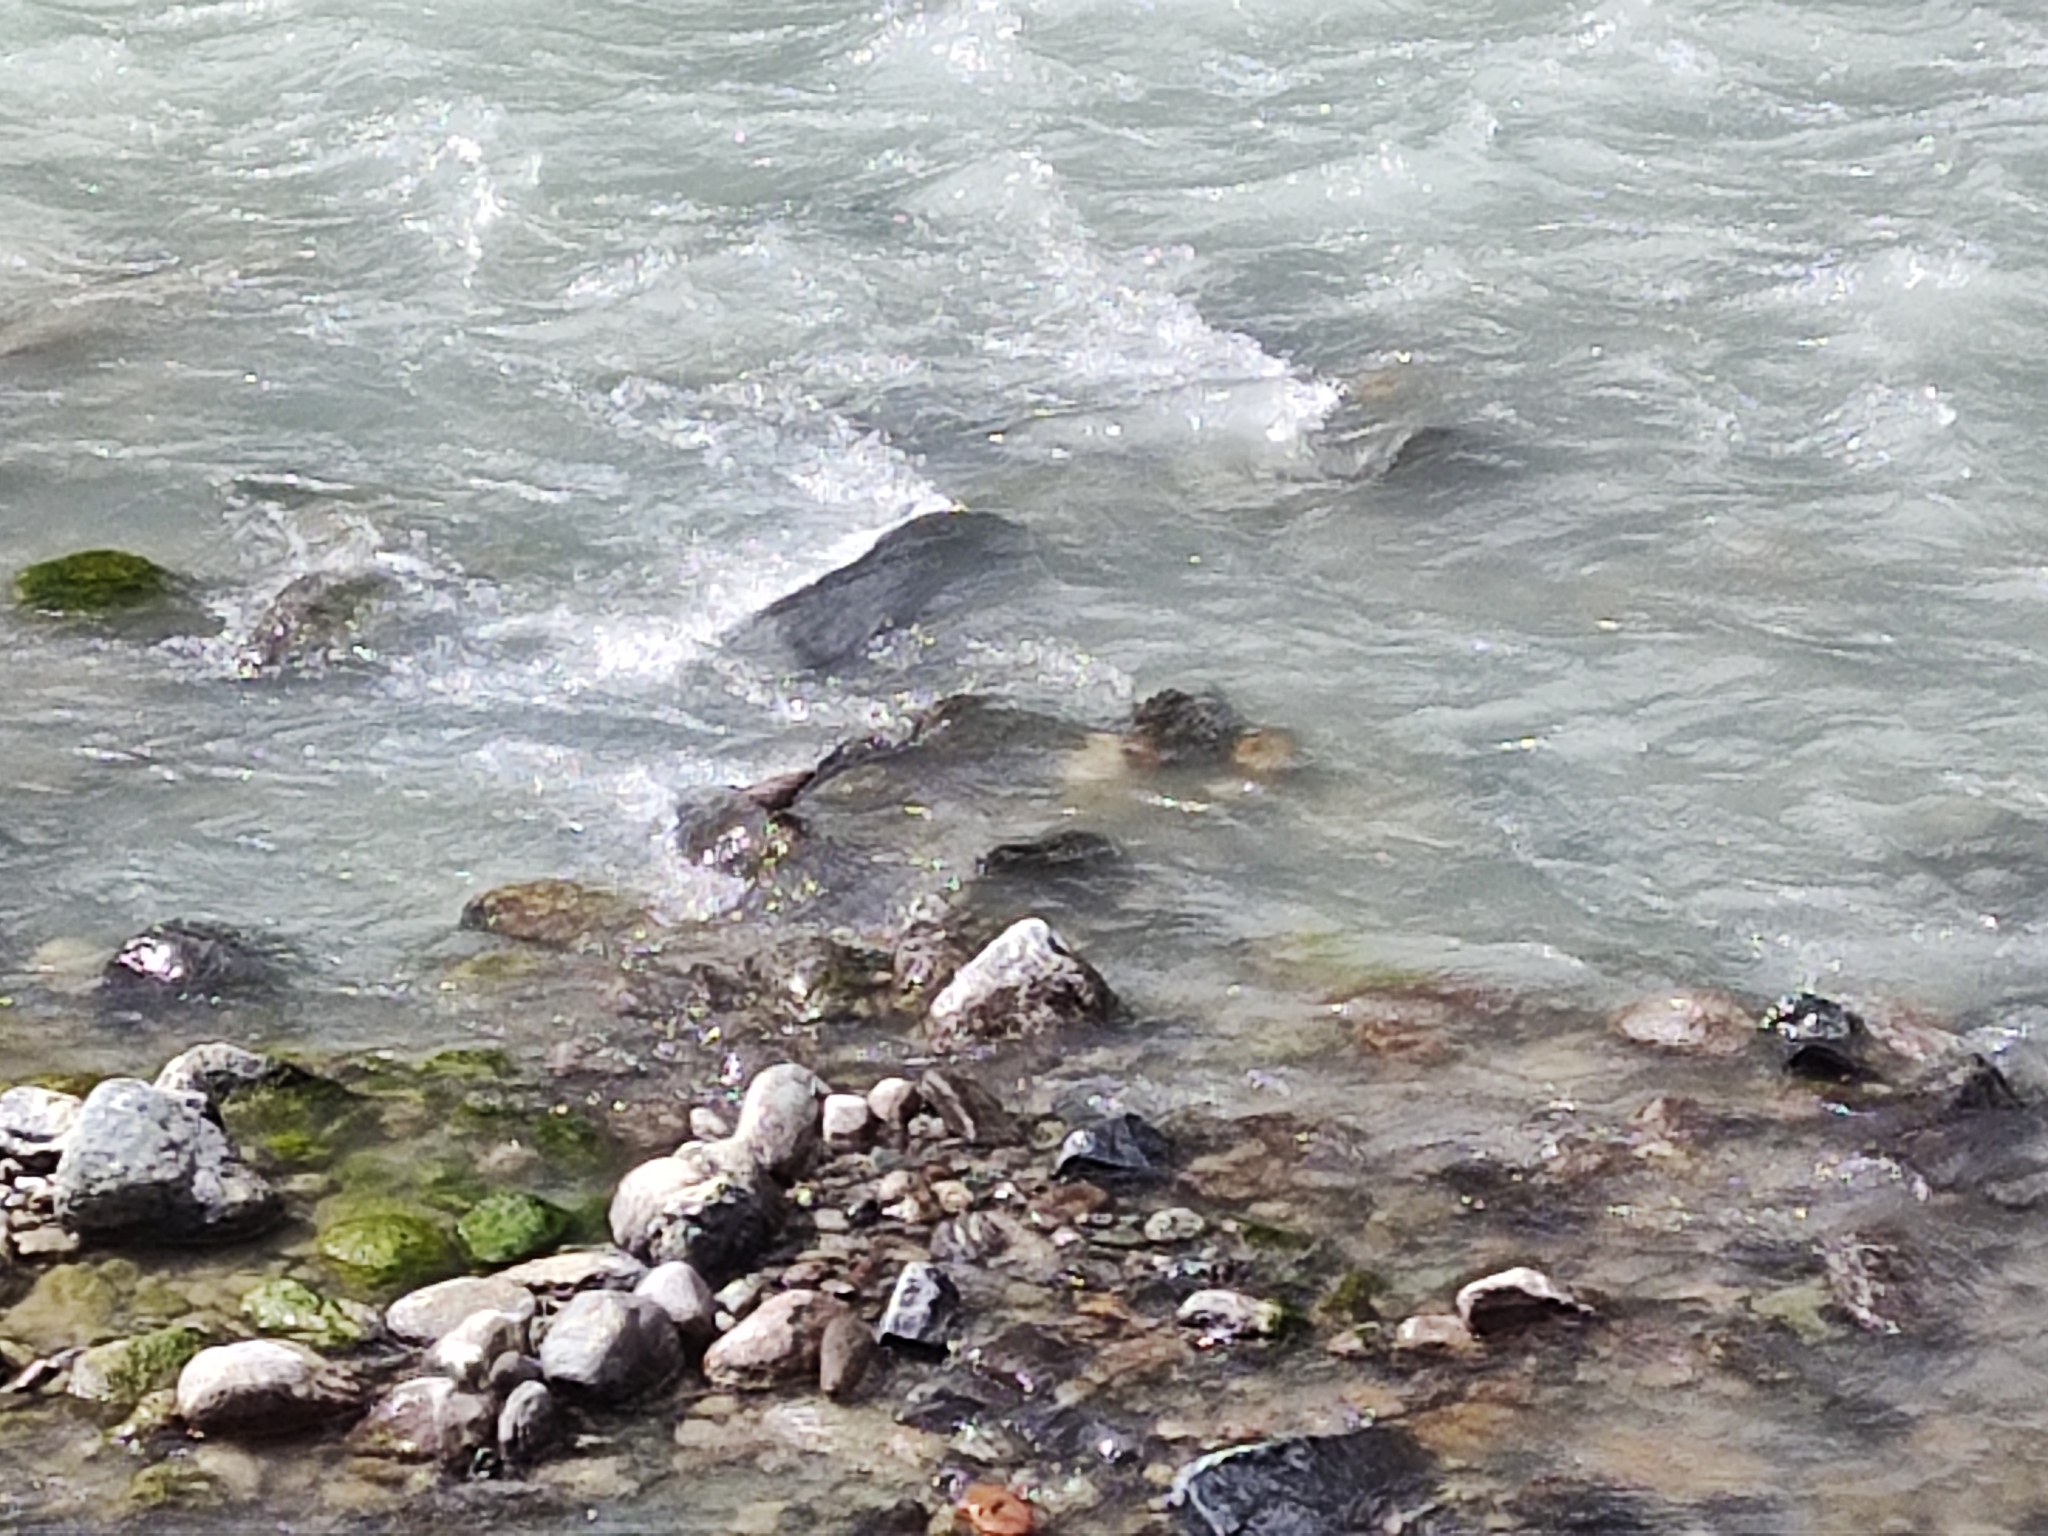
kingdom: Animalia
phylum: Chordata
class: Aves
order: Passeriformes
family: Cinclidae
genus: Cinclus
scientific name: Cinclus cinclus
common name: White-throated dipper
